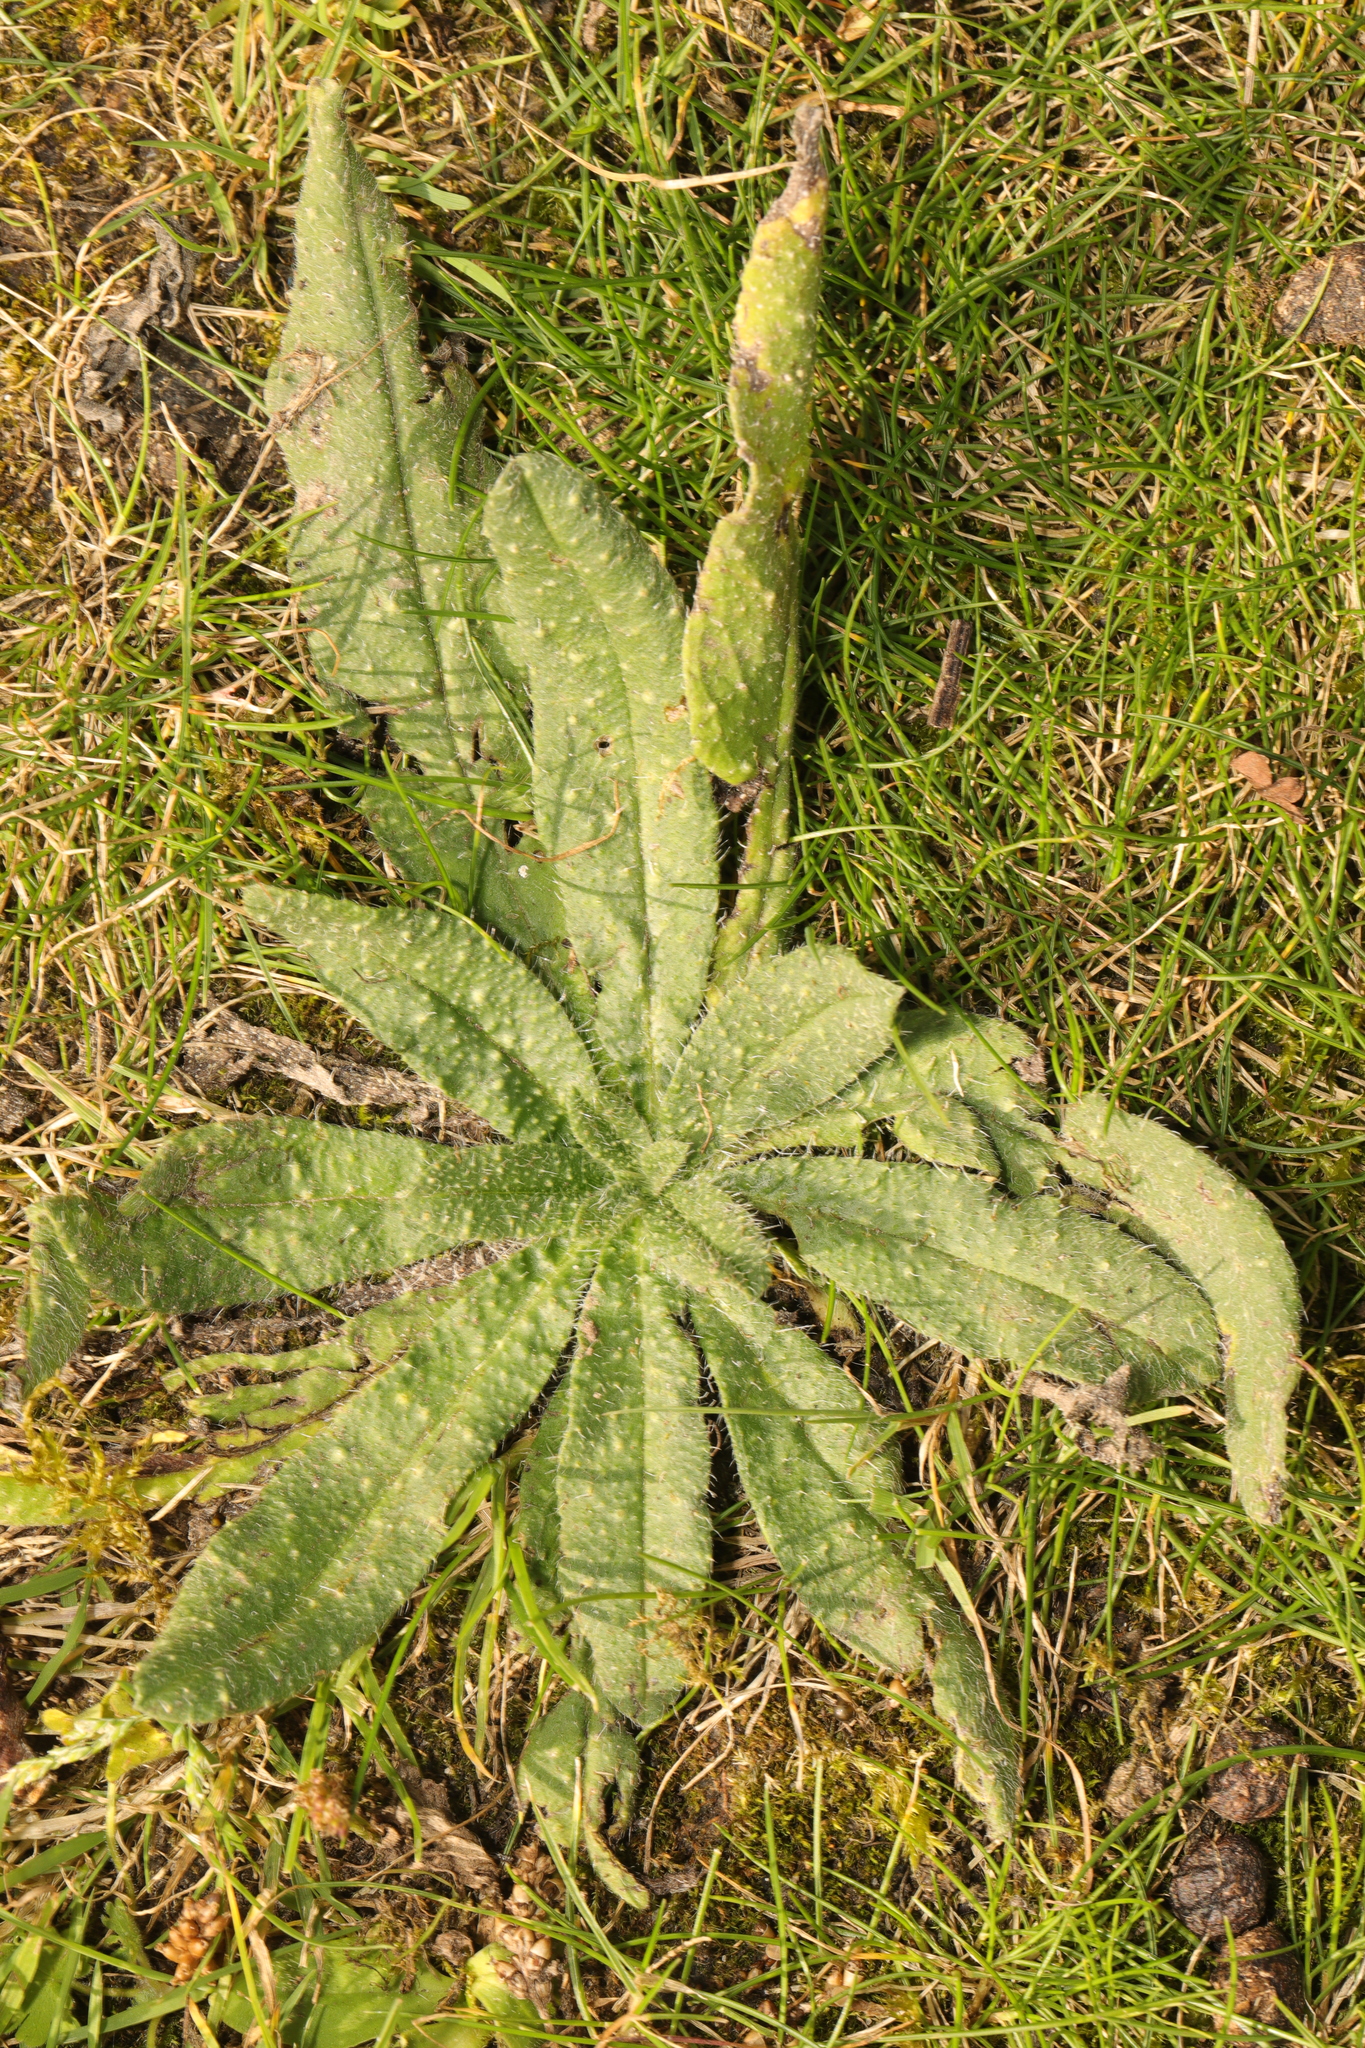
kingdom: Plantae
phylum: Tracheophyta
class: Magnoliopsida
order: Asterales
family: Asteraceae
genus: Helminthotheca
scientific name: Helminthotheca echioides
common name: Ox-tongue
